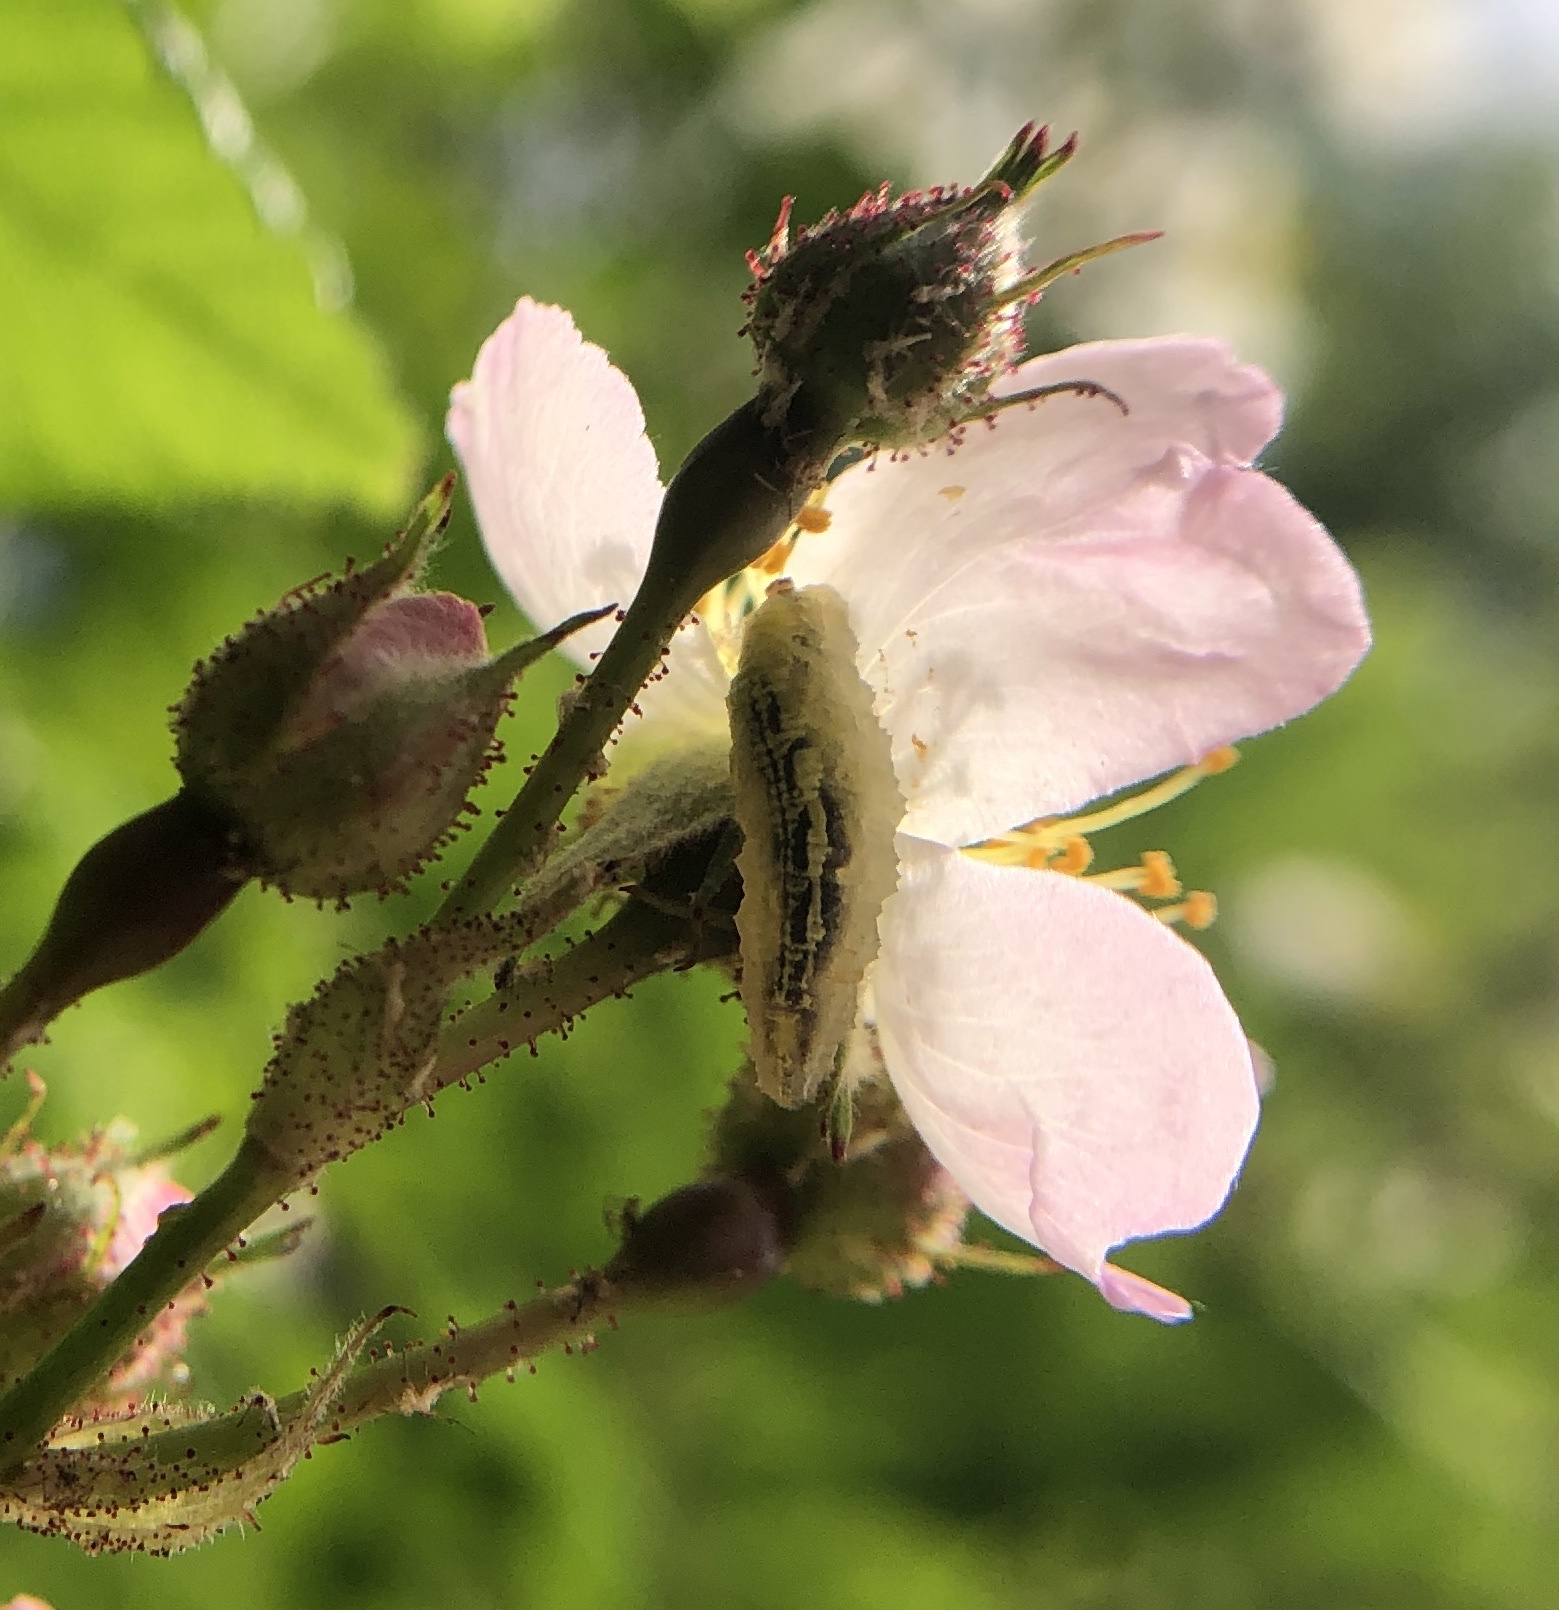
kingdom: Animalia
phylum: Arthropoda
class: Insecta
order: Diptera
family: Syrphidae
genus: Syrphus
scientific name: Syrphus
